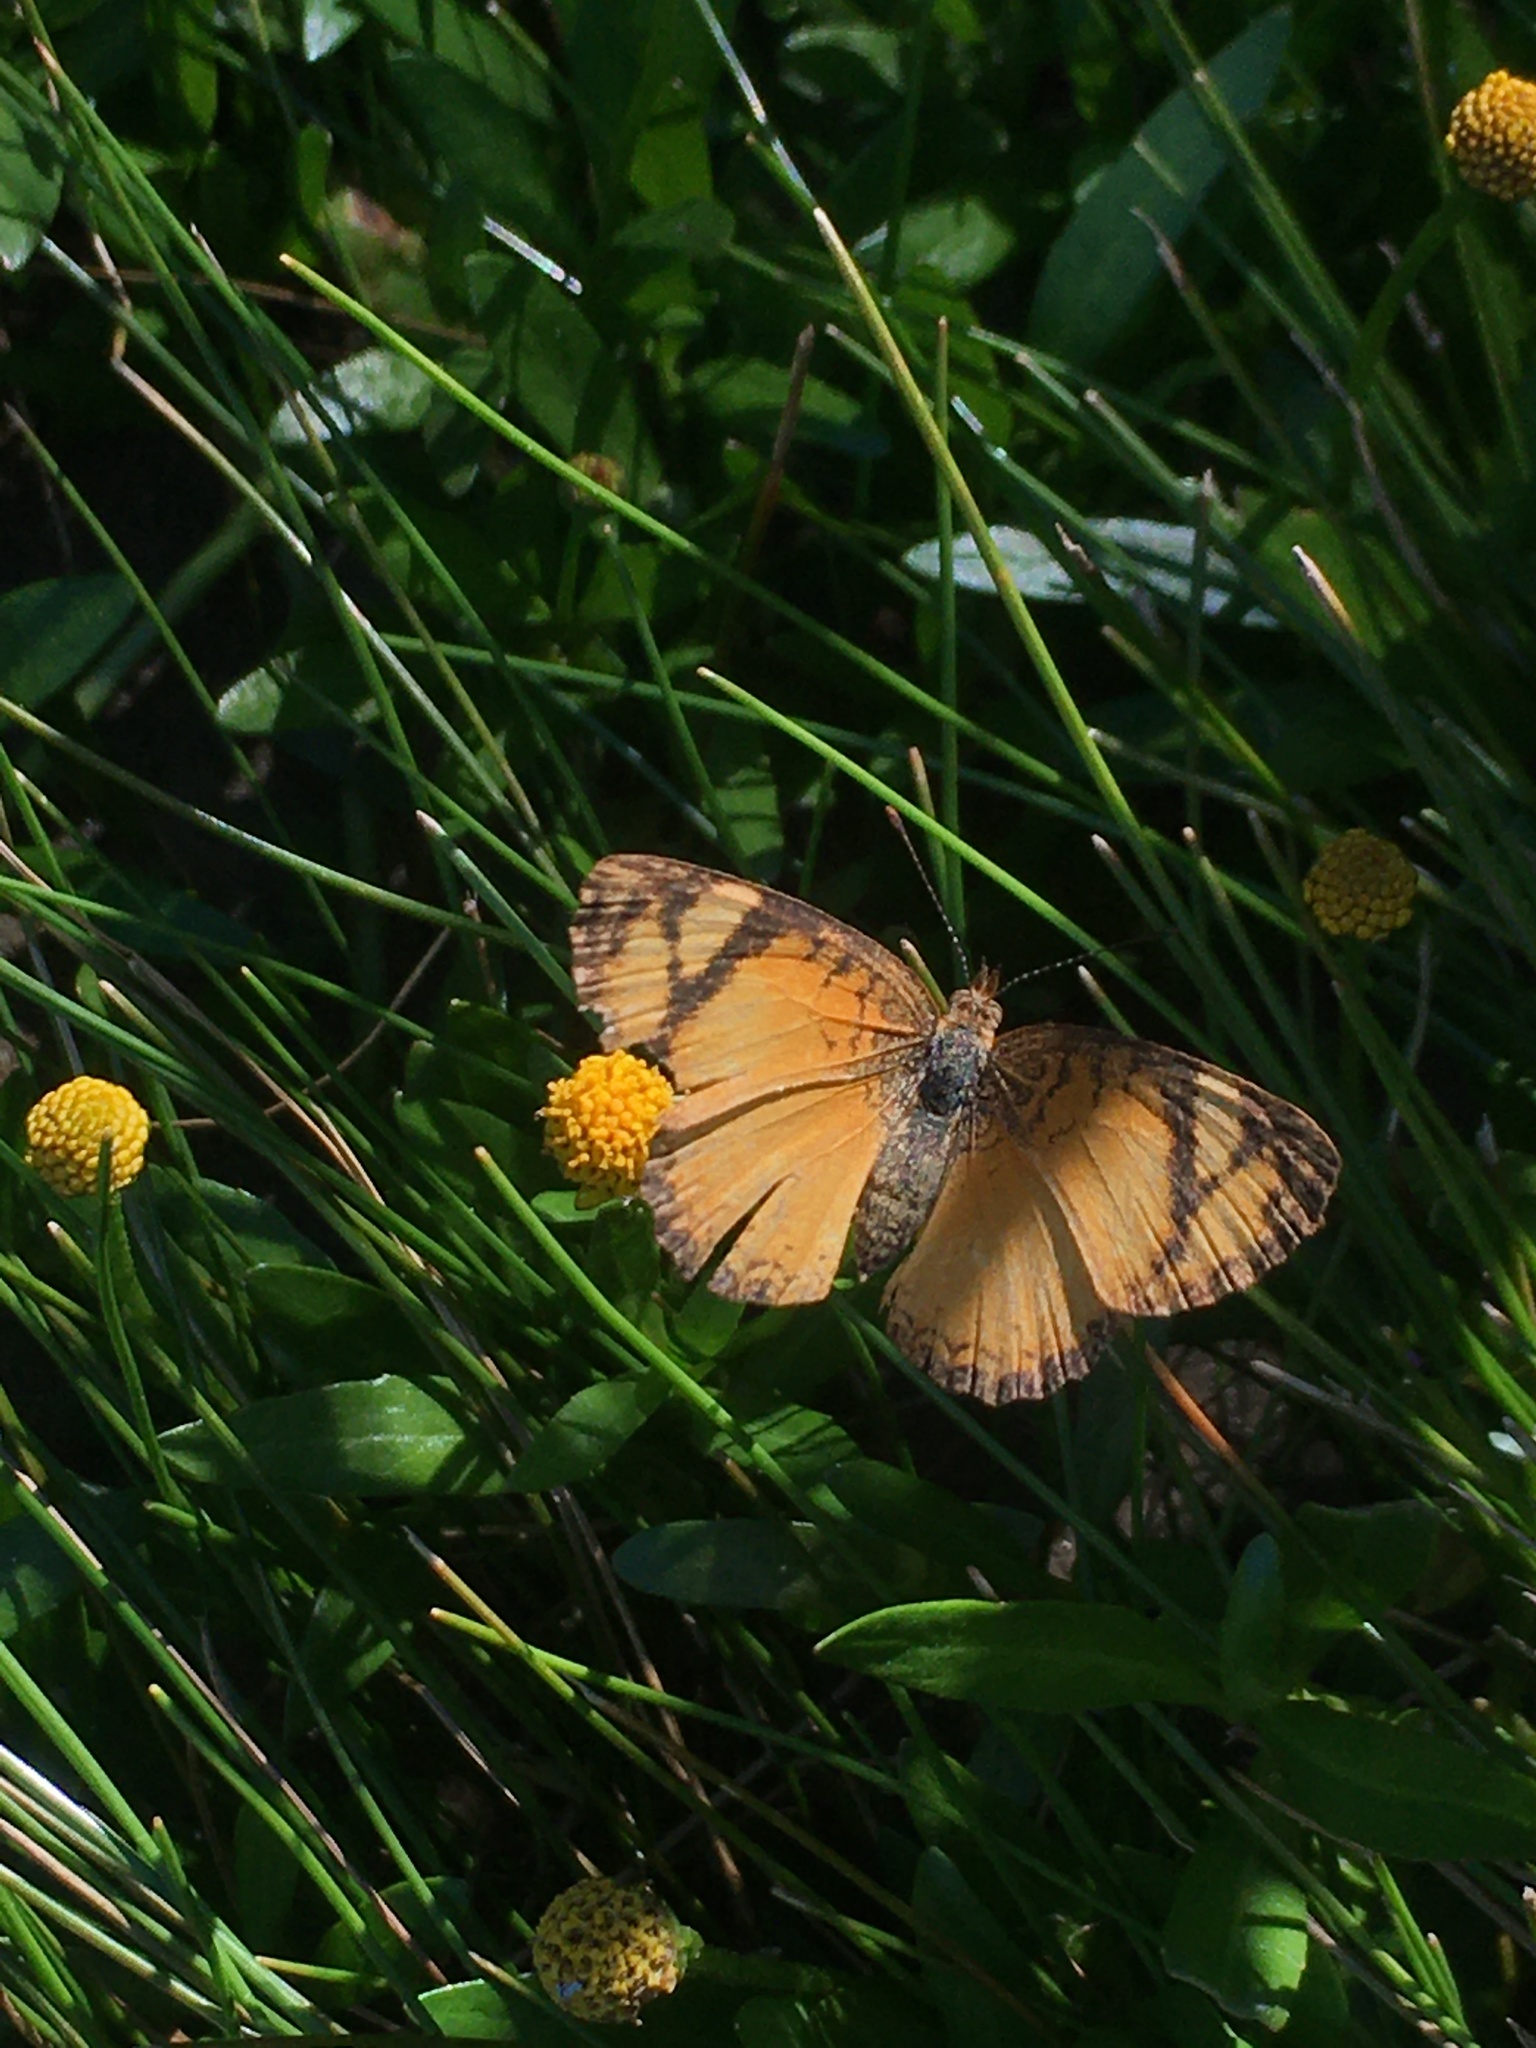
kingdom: Animalia
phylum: Arthropoda
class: Insecta
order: Lepidoptera
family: Nymphalidae
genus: Tegosa
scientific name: Tegosa claudina
